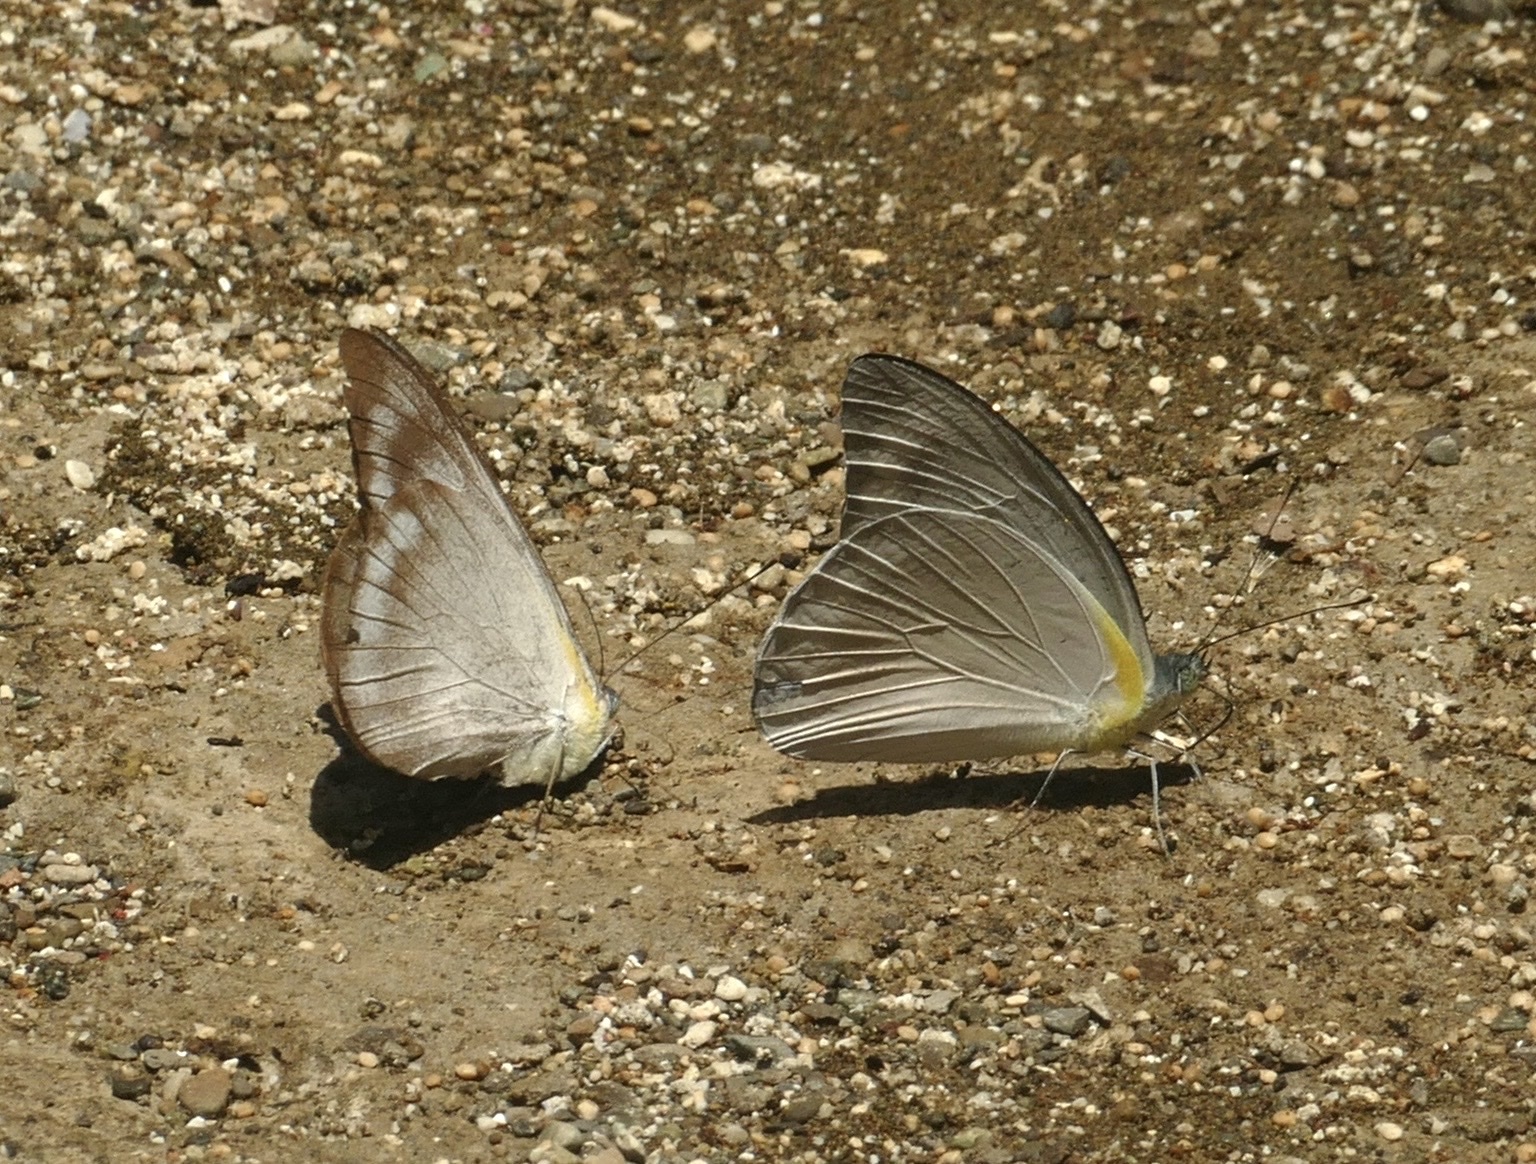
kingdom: Animalia
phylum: Arthropoda
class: Insecta
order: Lepidoptera
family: Pieridae
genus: Appias
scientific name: Appias celestina
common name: Common migrant
